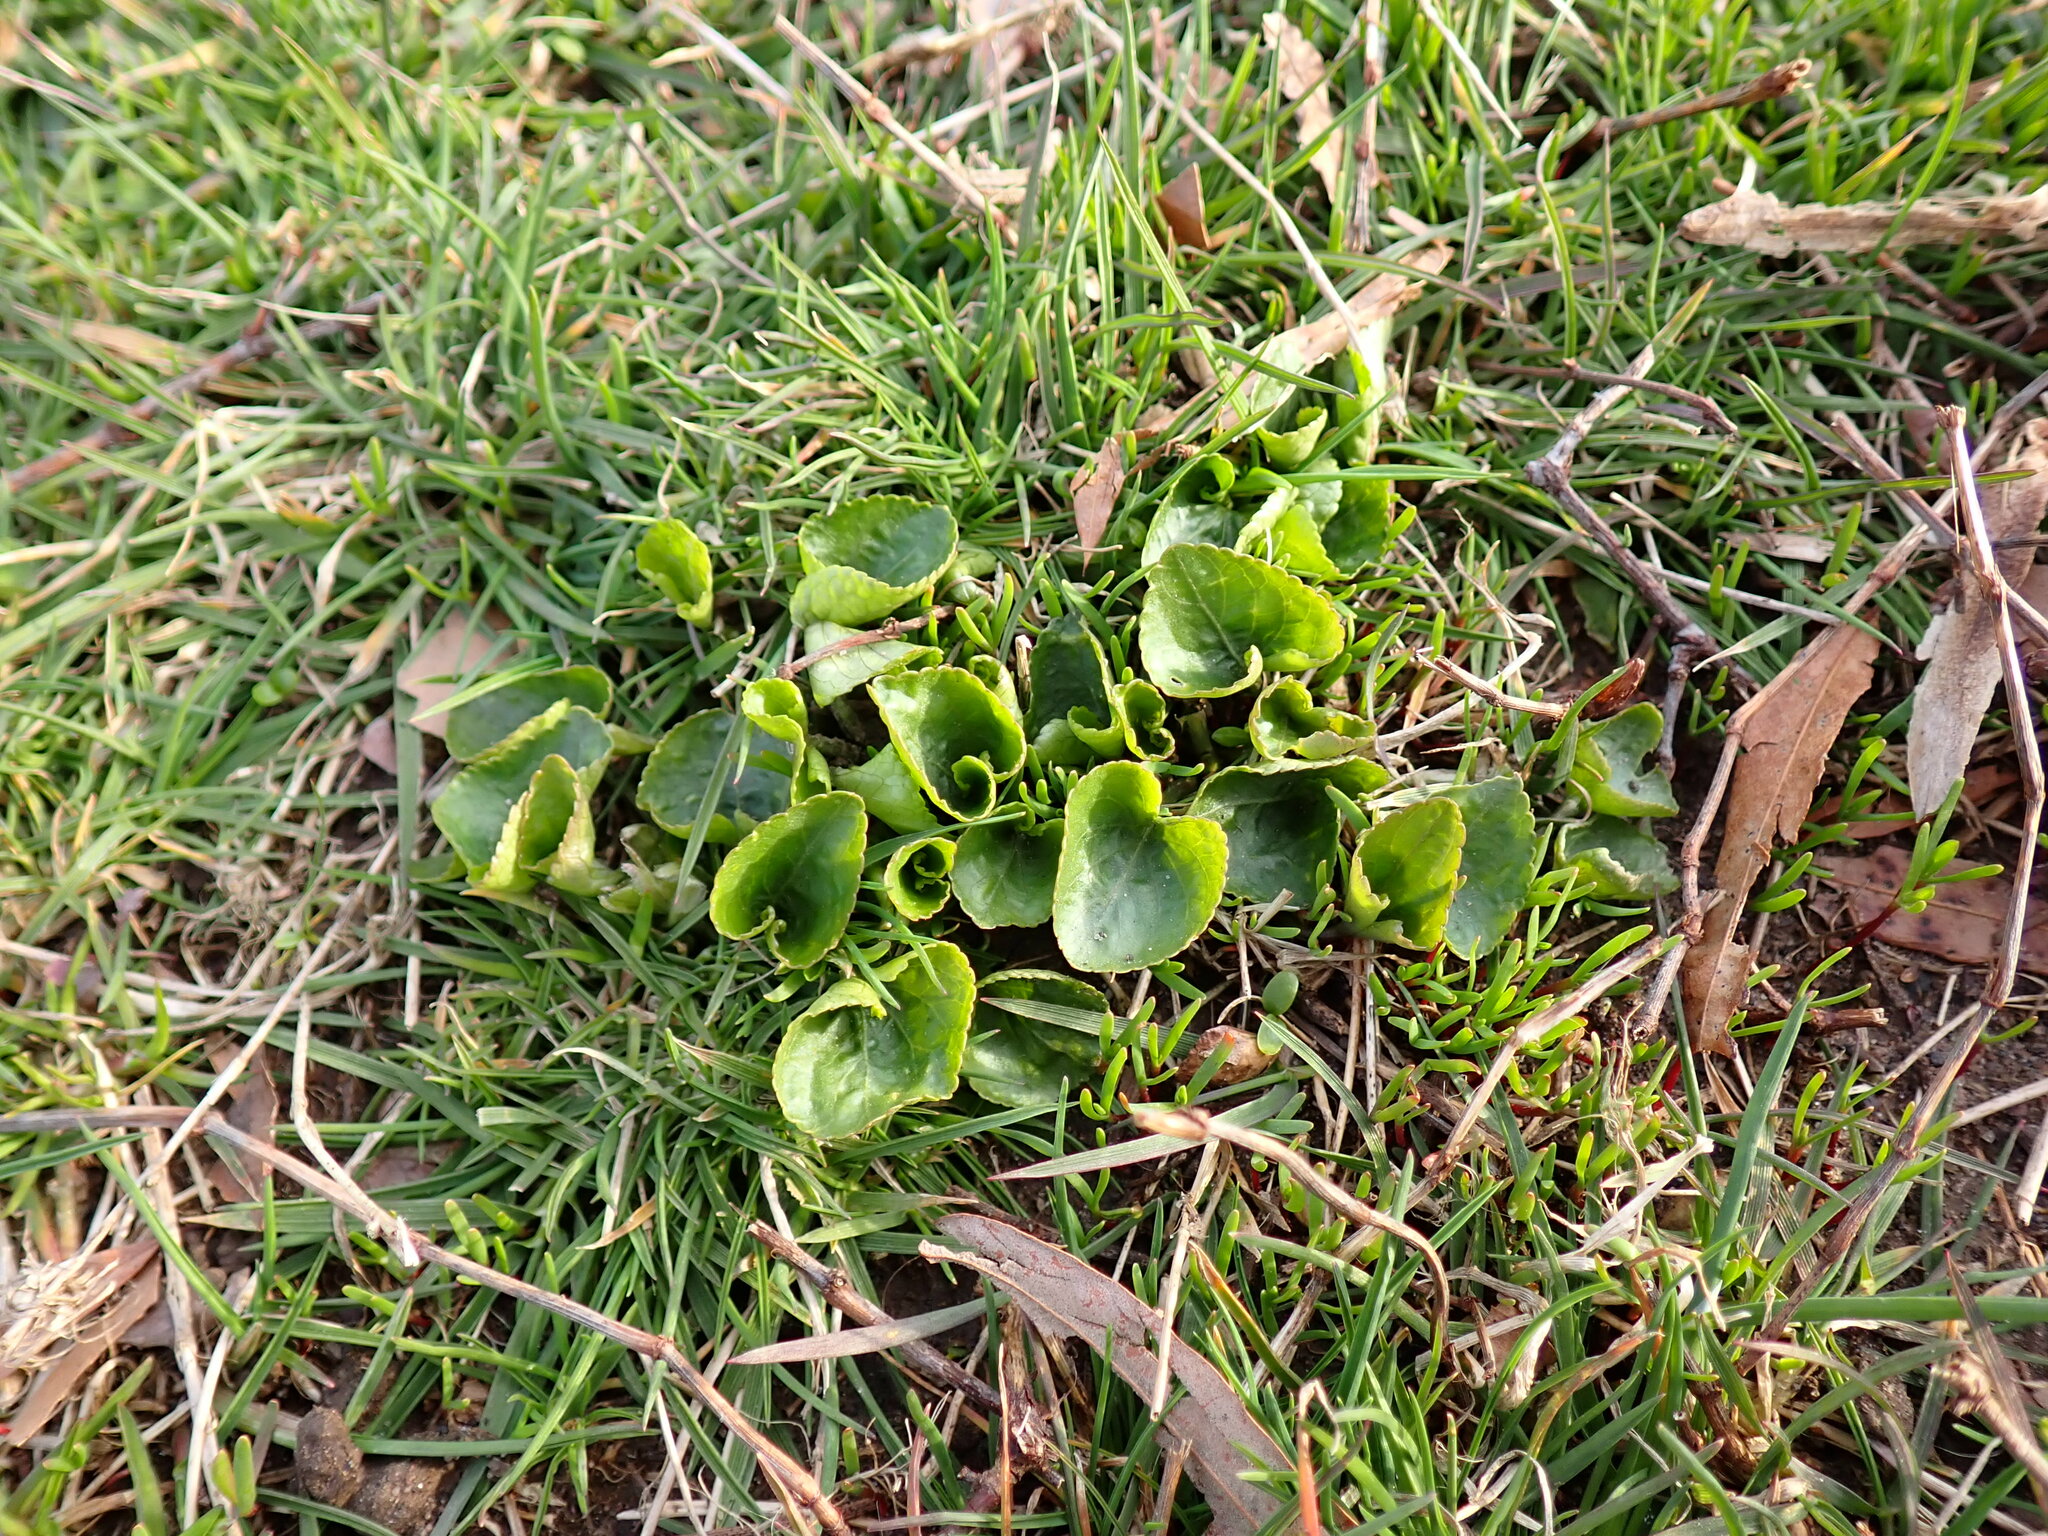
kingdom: Plantae
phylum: Tracheophyta
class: Magnoliopsida
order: Malpighiales
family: Violaceae
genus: Viola
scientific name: Viola sororia
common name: Dooryard violet
